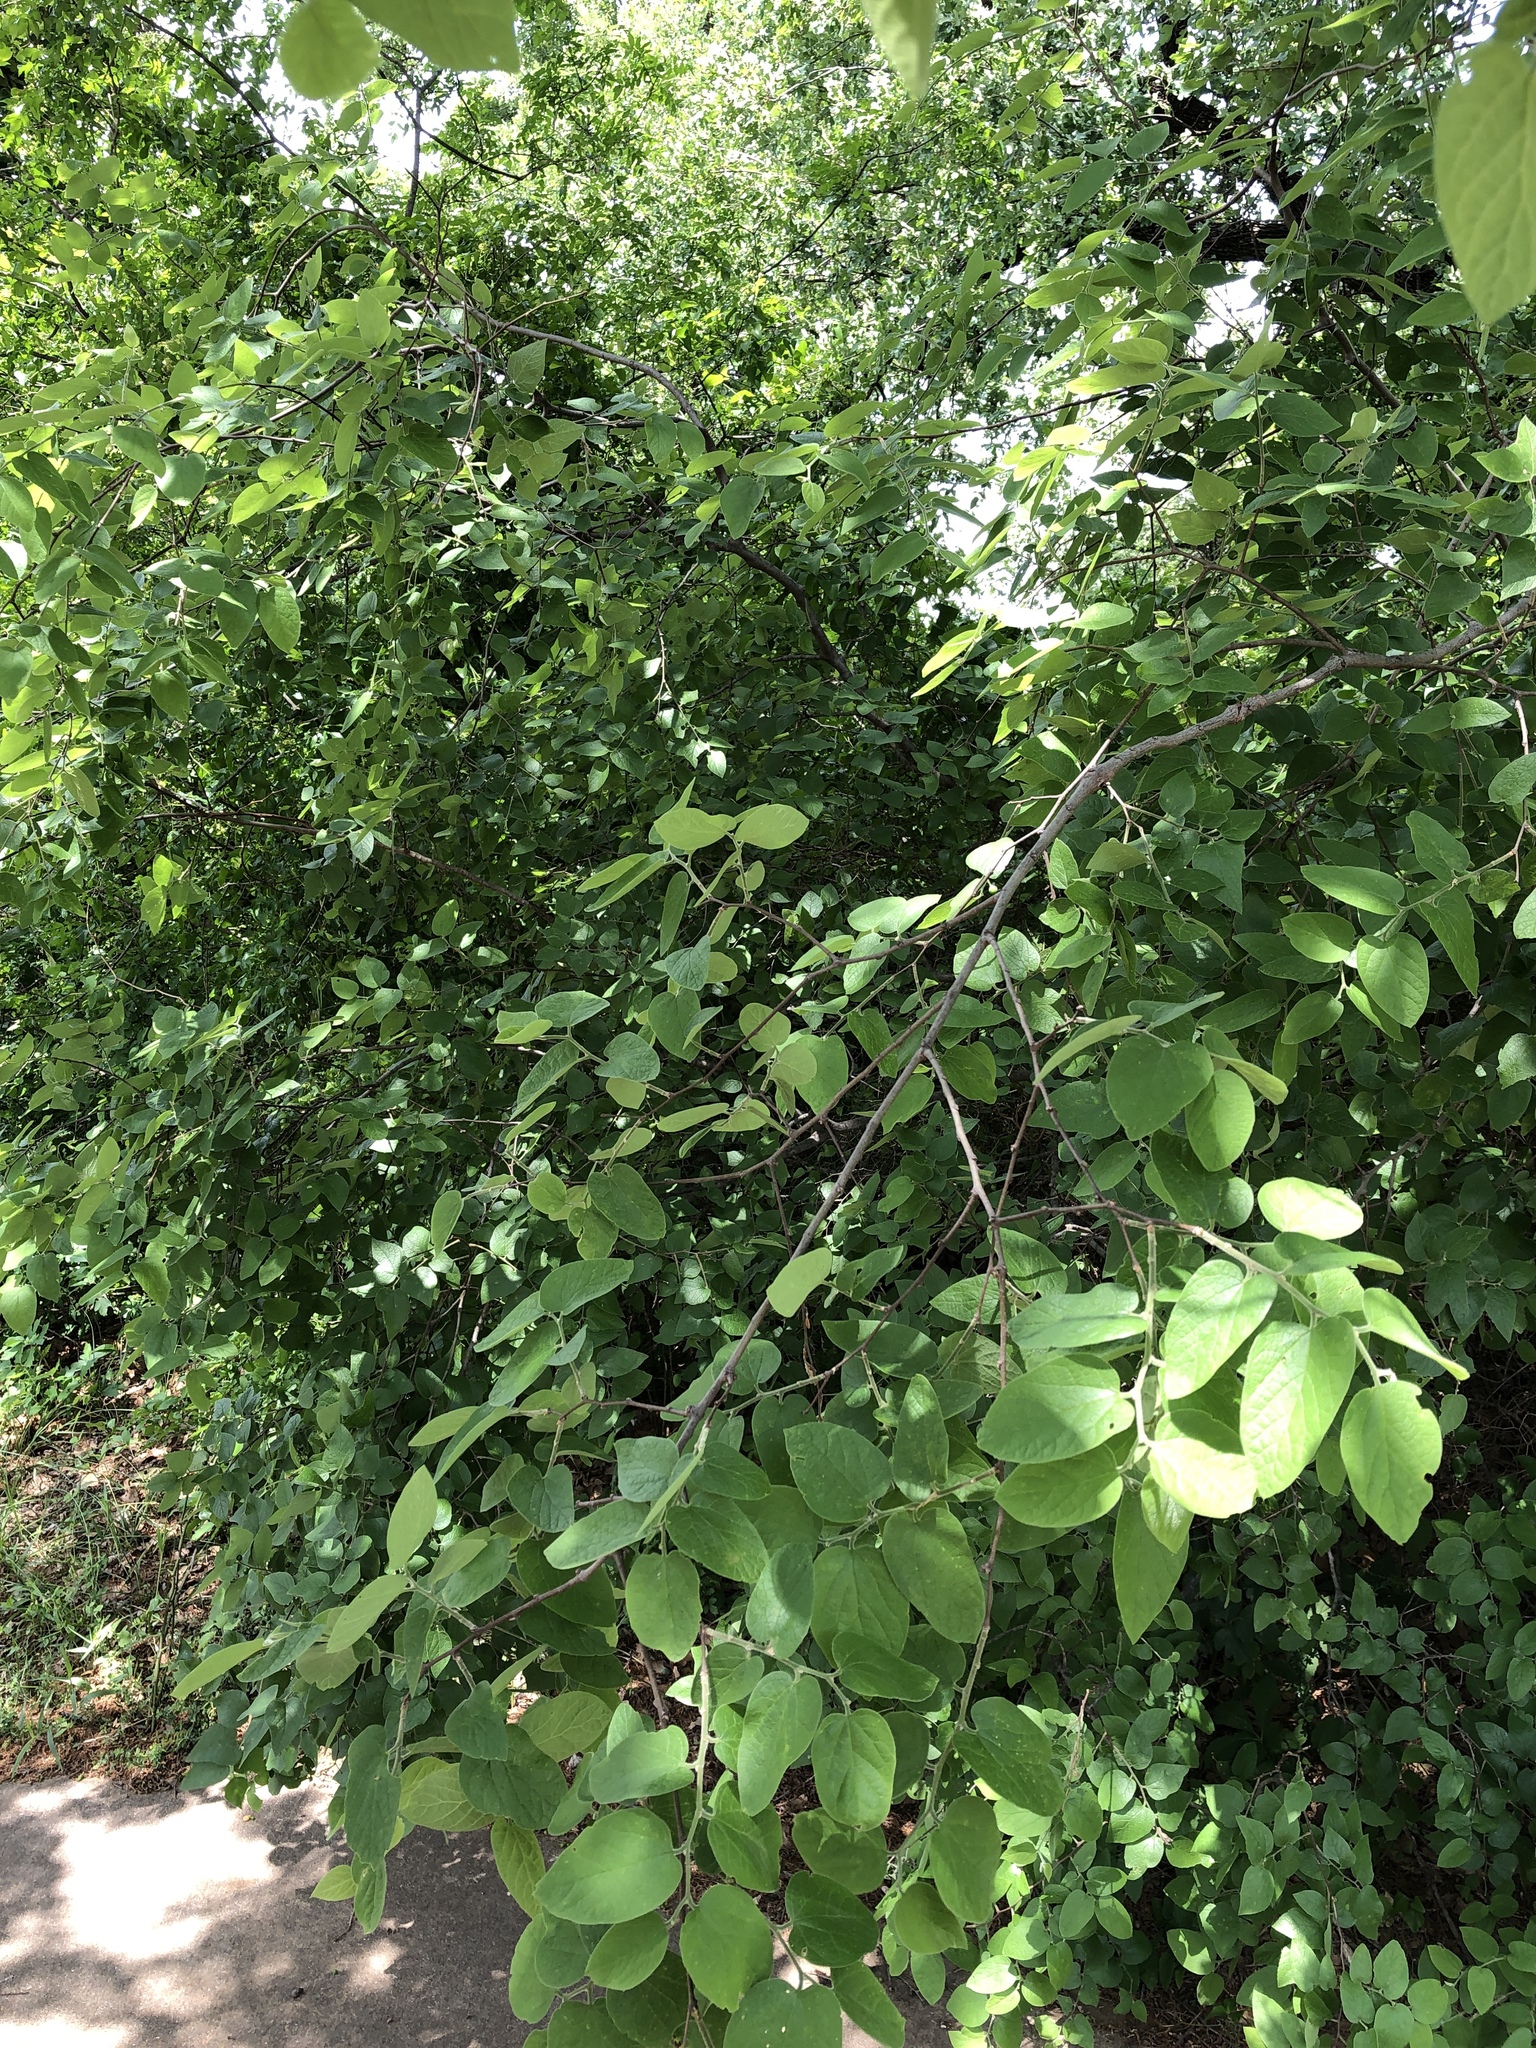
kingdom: Plantae
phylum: Tracheophyta
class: Magnoliopsida
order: Rosales
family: Cannabaceae
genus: Celtis
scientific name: Celtis reticulata
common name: Netleaf hackberry
